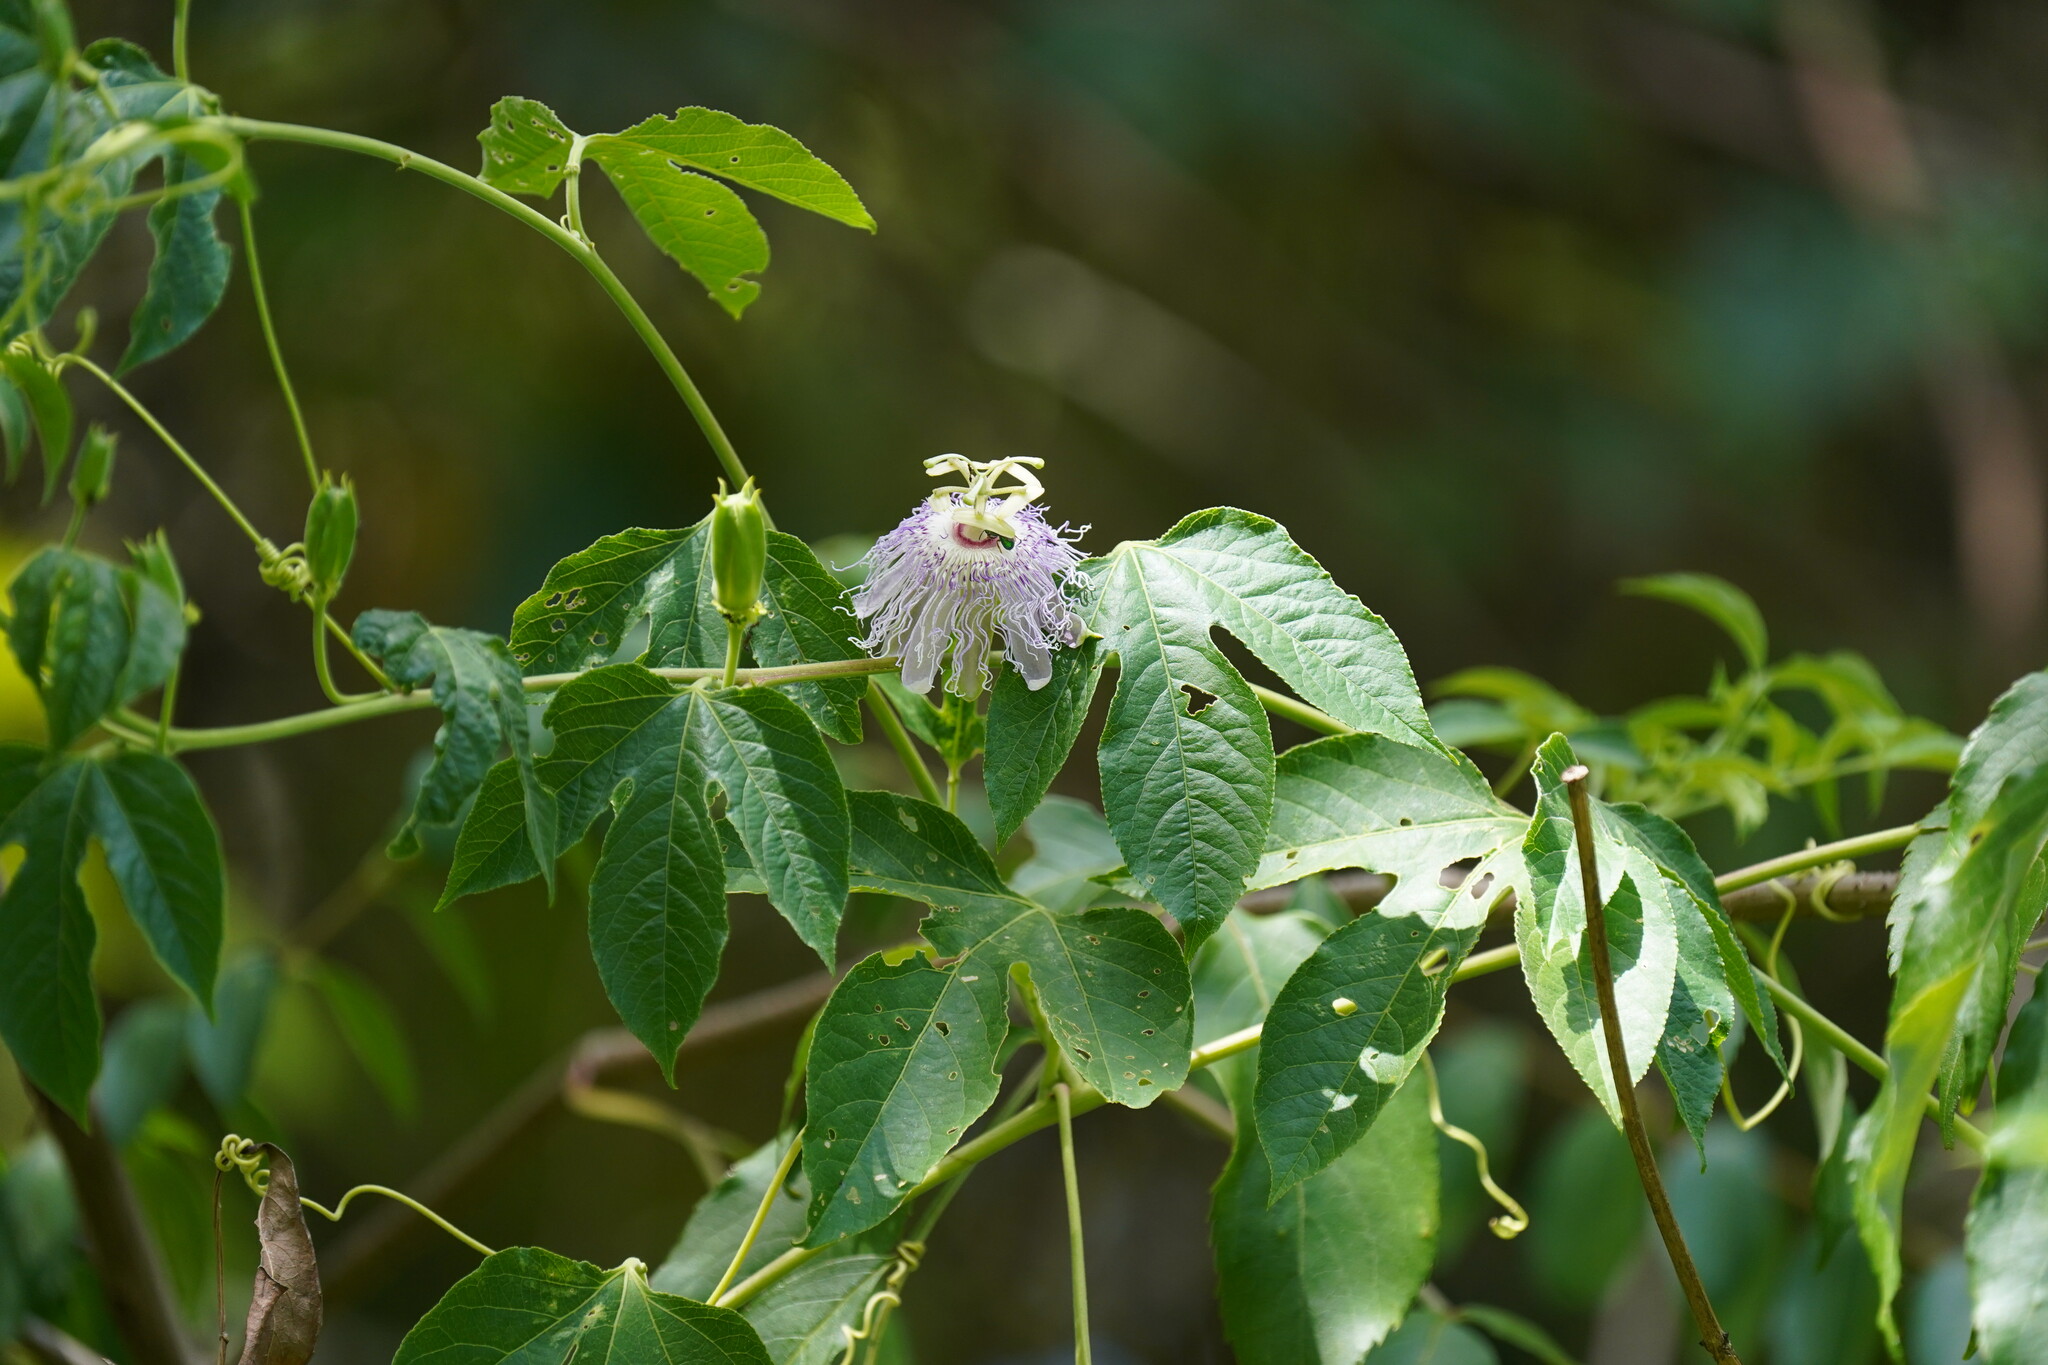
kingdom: Plantae
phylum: Tracheophyta
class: Magnoliopsida
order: Malpighiales
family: Passifloraceae
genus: Passiflora
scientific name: Passiflora incarnata
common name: Apricot-vine
